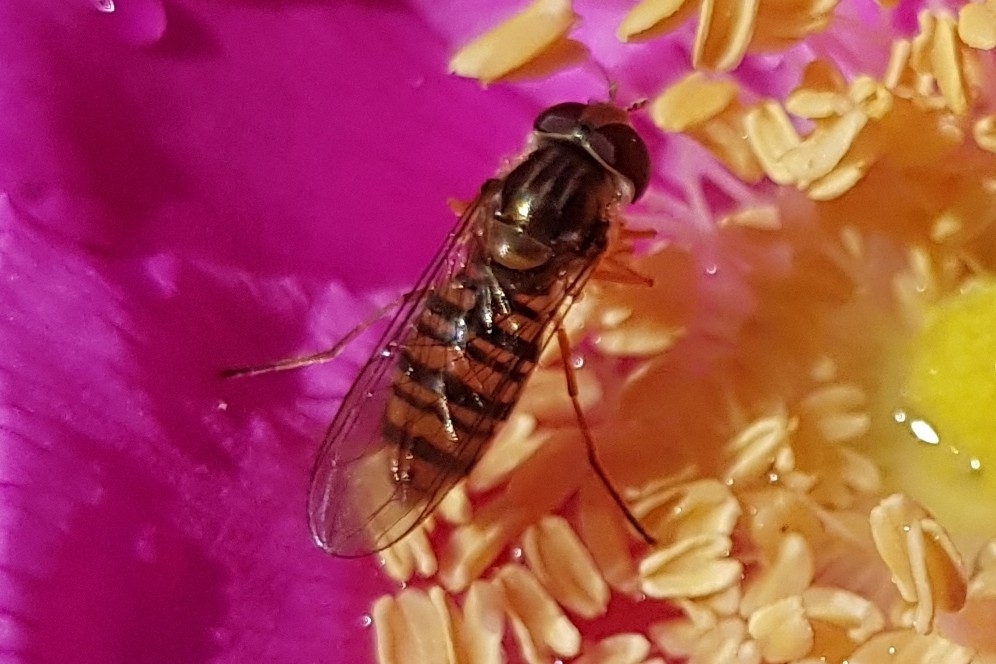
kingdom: Animalia
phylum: Arthropoda
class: Insecta
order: Diptera
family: Syrphidae
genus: Episyrphus
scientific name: Episyrphus balteatus
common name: Marmalade hoverfly
